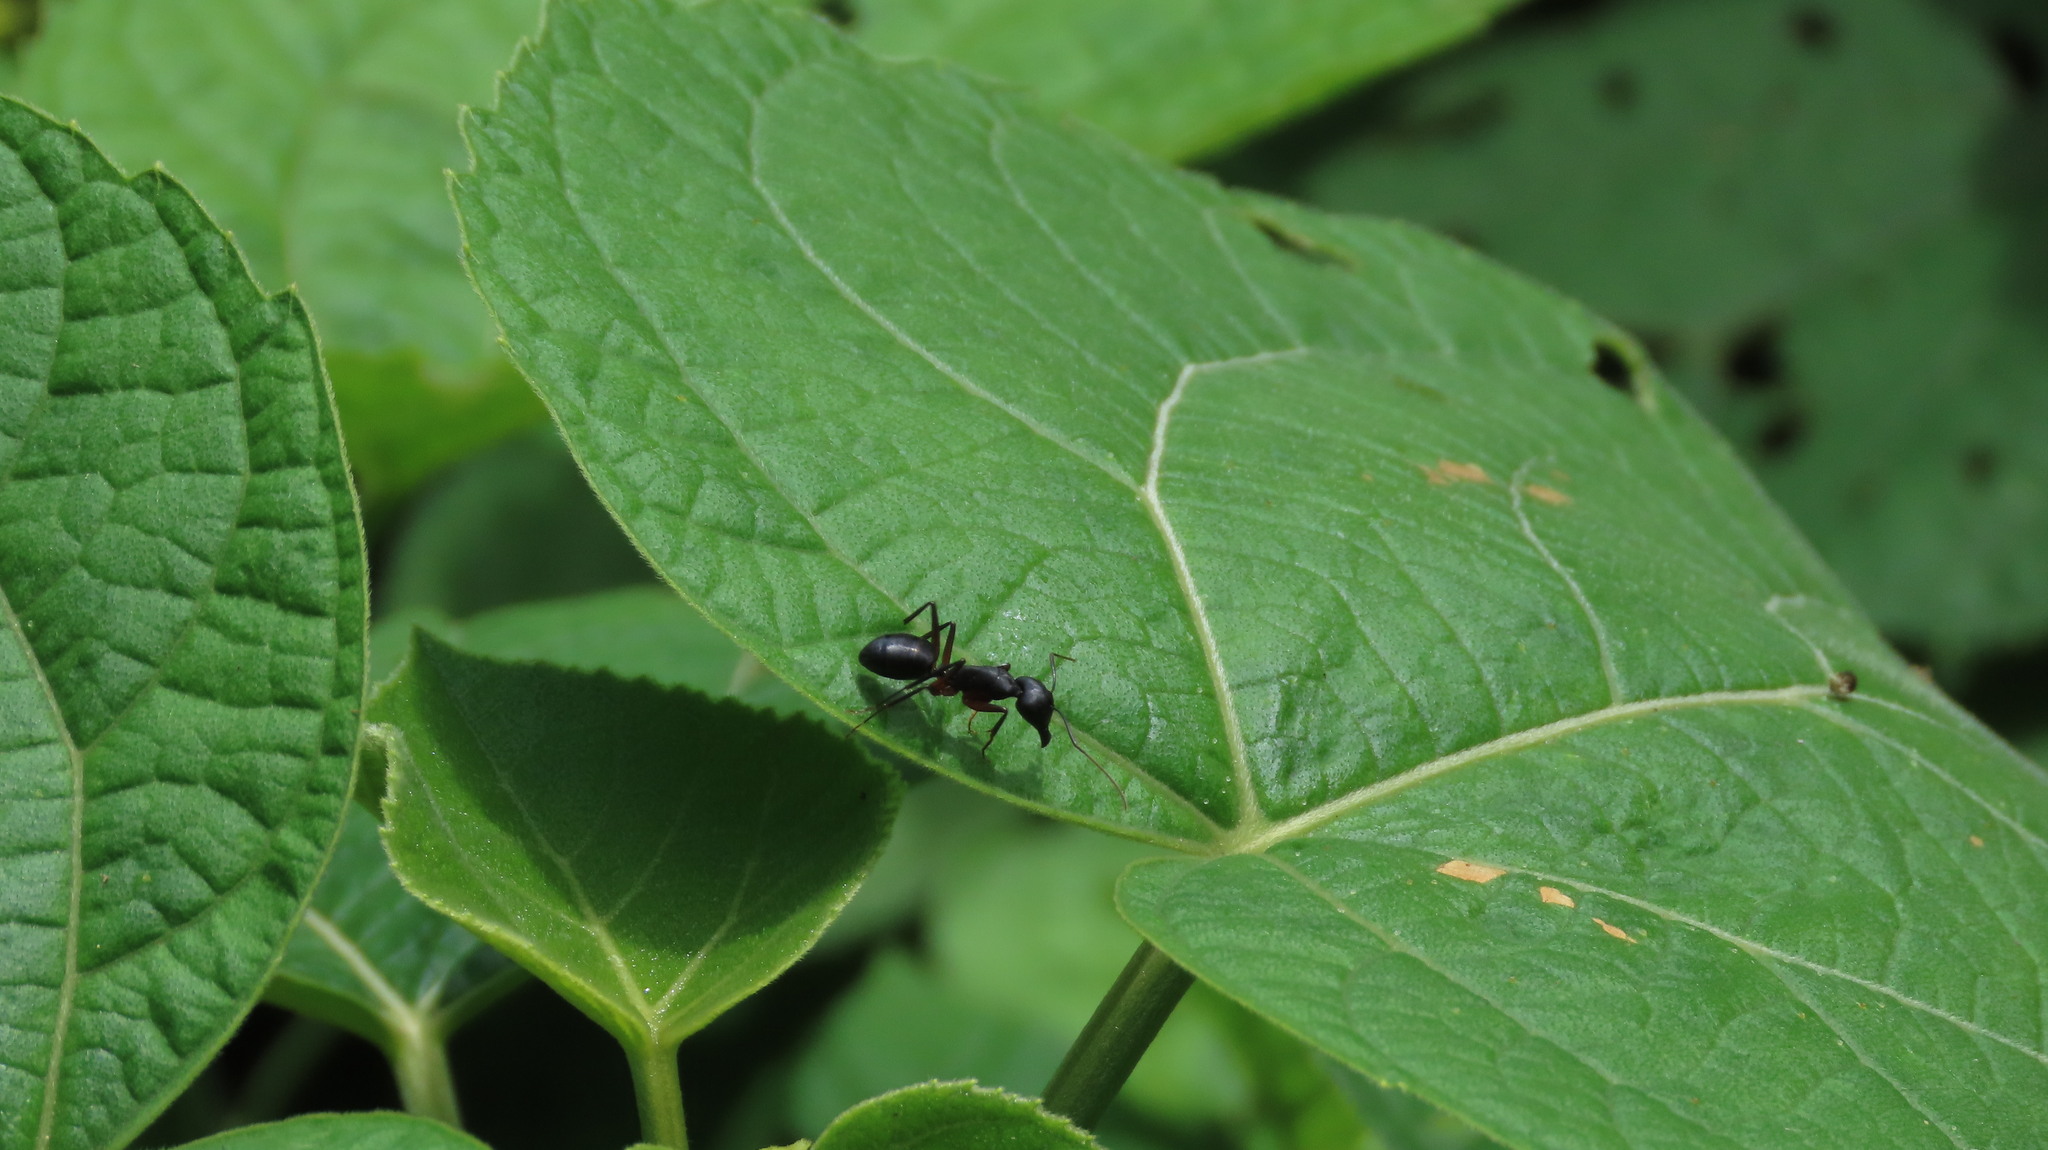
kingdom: Animalia
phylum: Arthropoda
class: Insecta
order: Hymenoptera
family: Formicidae
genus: Camponotus
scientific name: Camponotus compressus
